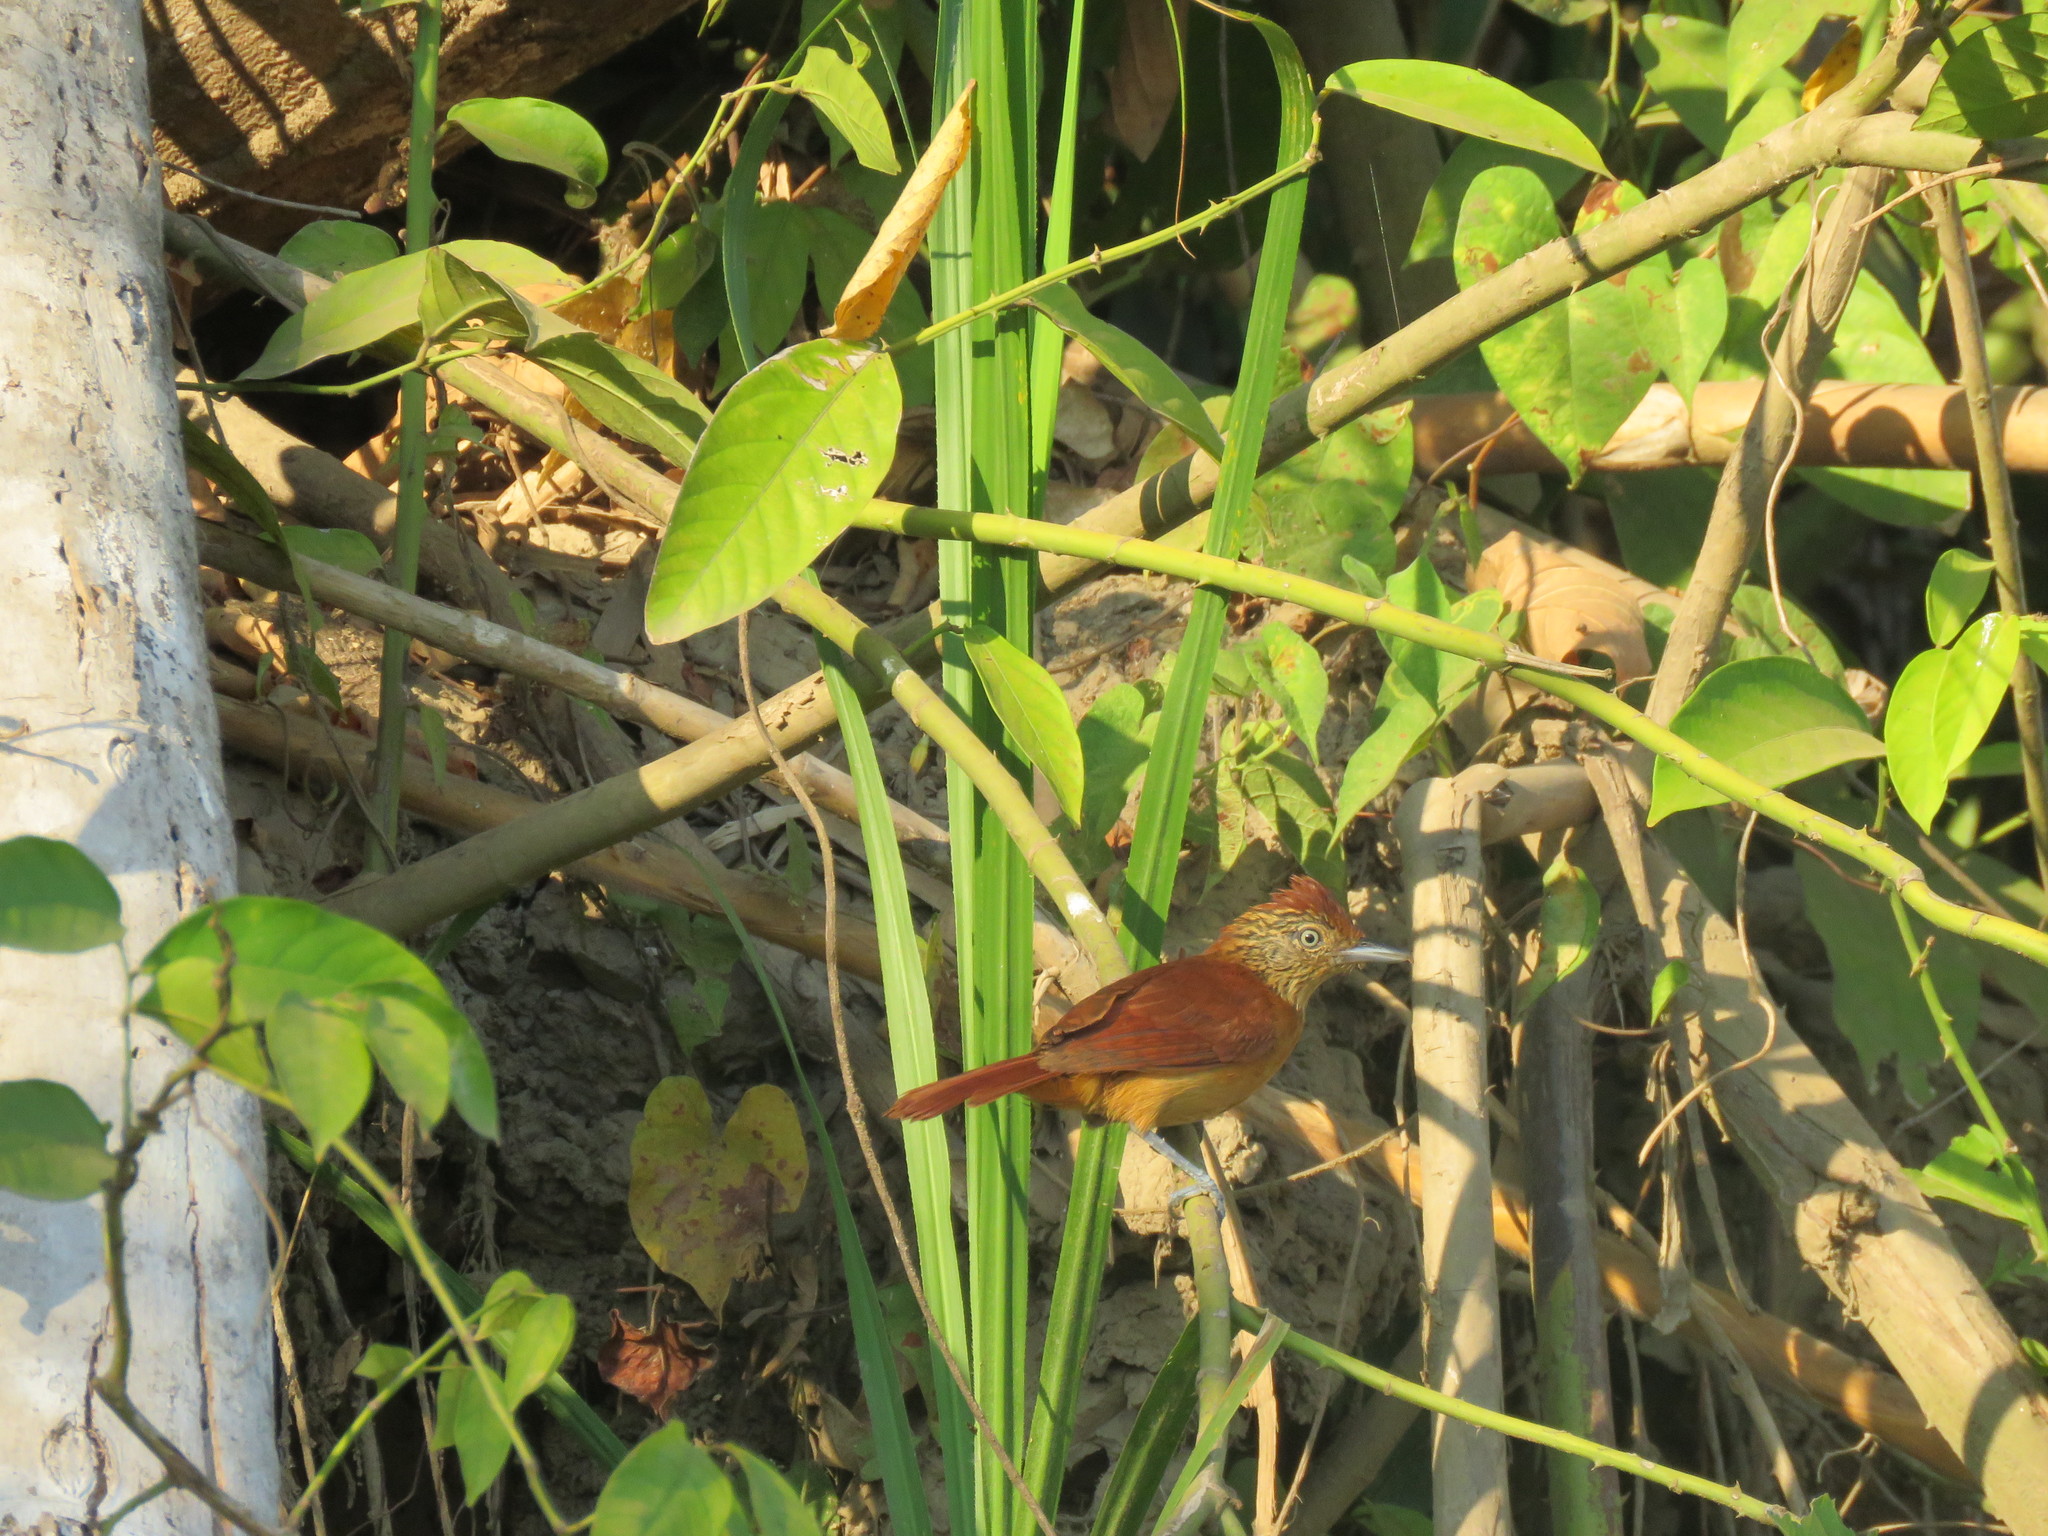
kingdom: Animalia
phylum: Chordata
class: Aves
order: Passeriformes
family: Thamnophilidae
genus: Thamnophilus
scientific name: Thamnophilus doliatus
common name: Barred antshrike
